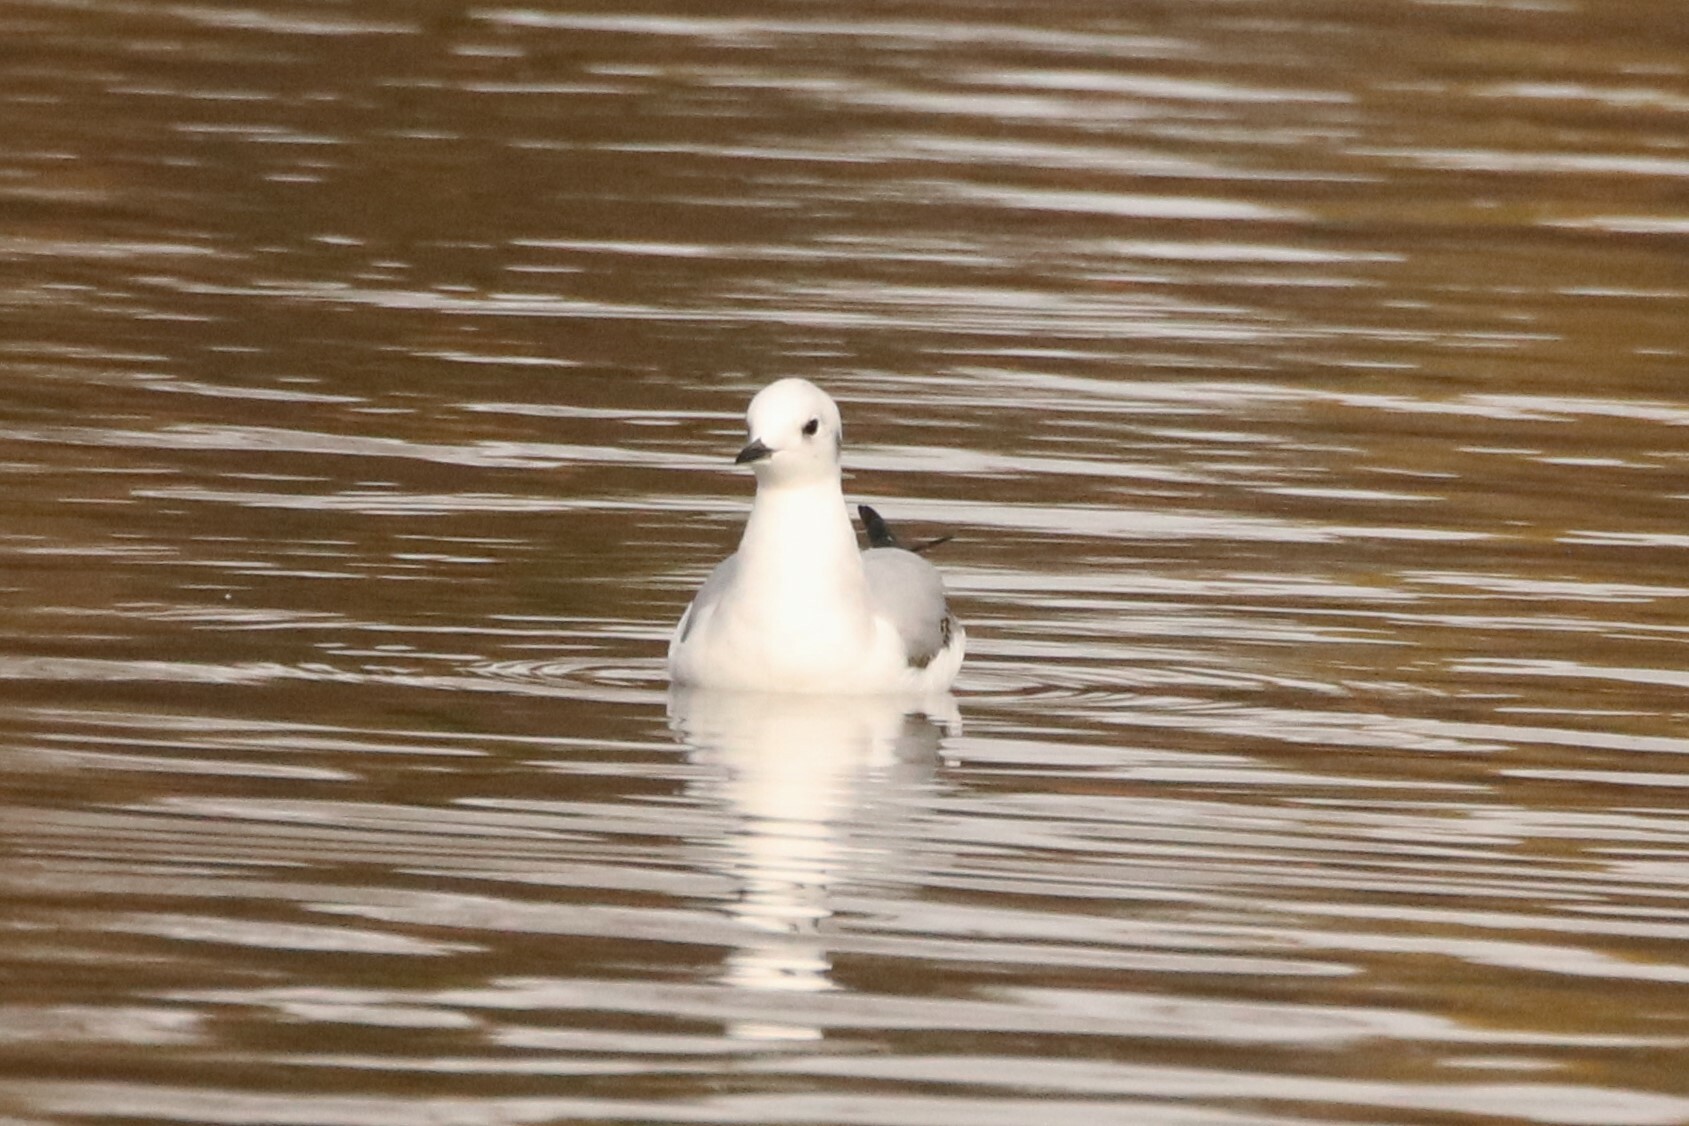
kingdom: Animalia
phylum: Chordata
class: Aves
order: Charadriiformes
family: Laridae
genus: Chroicocephalus
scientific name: Chroicocephalus philadelphia
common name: Bonaparte's gull
